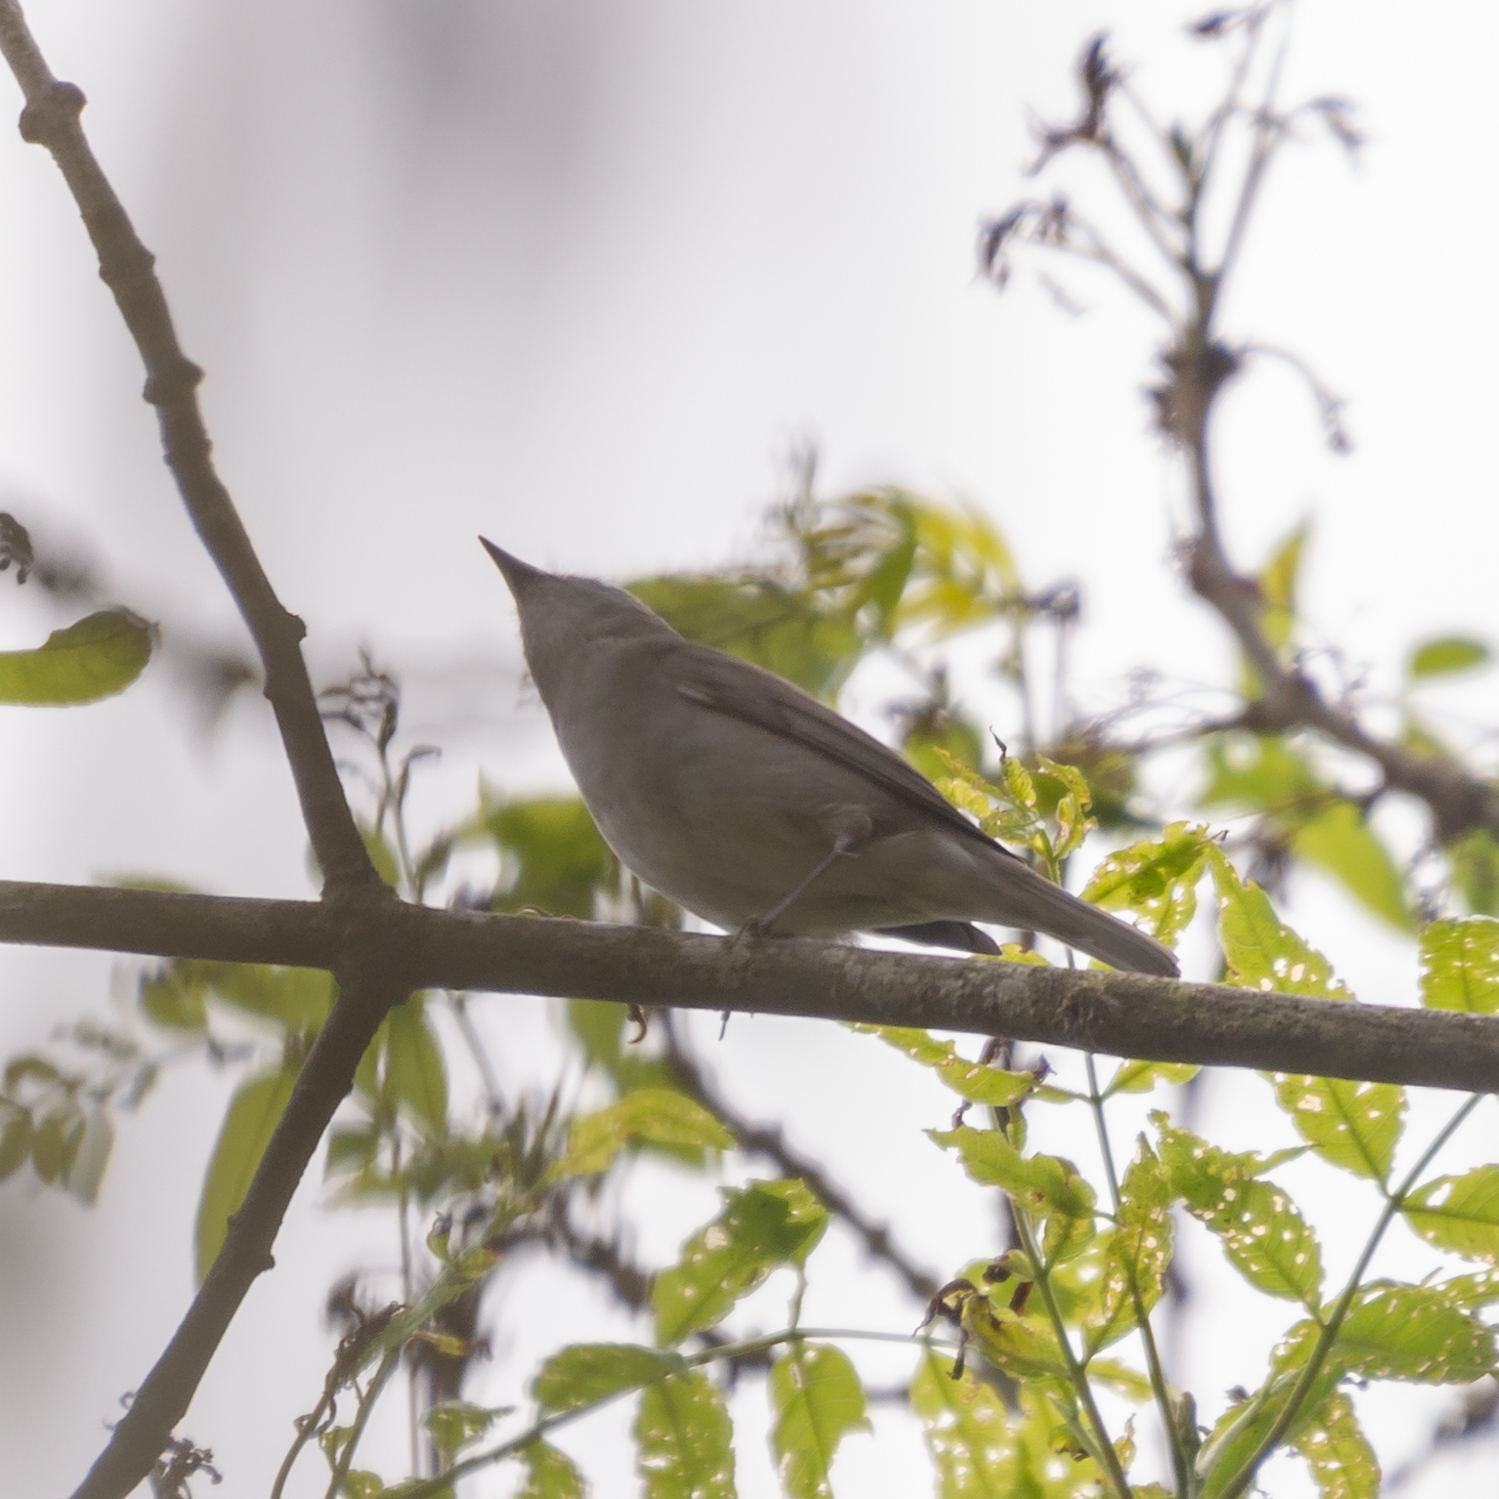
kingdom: Animalia
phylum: Chordata
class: Aves
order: Passeriformes
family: Sylviidae
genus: Sylvia
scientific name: Sylvia atricapilla
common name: Eurasian blackcap
